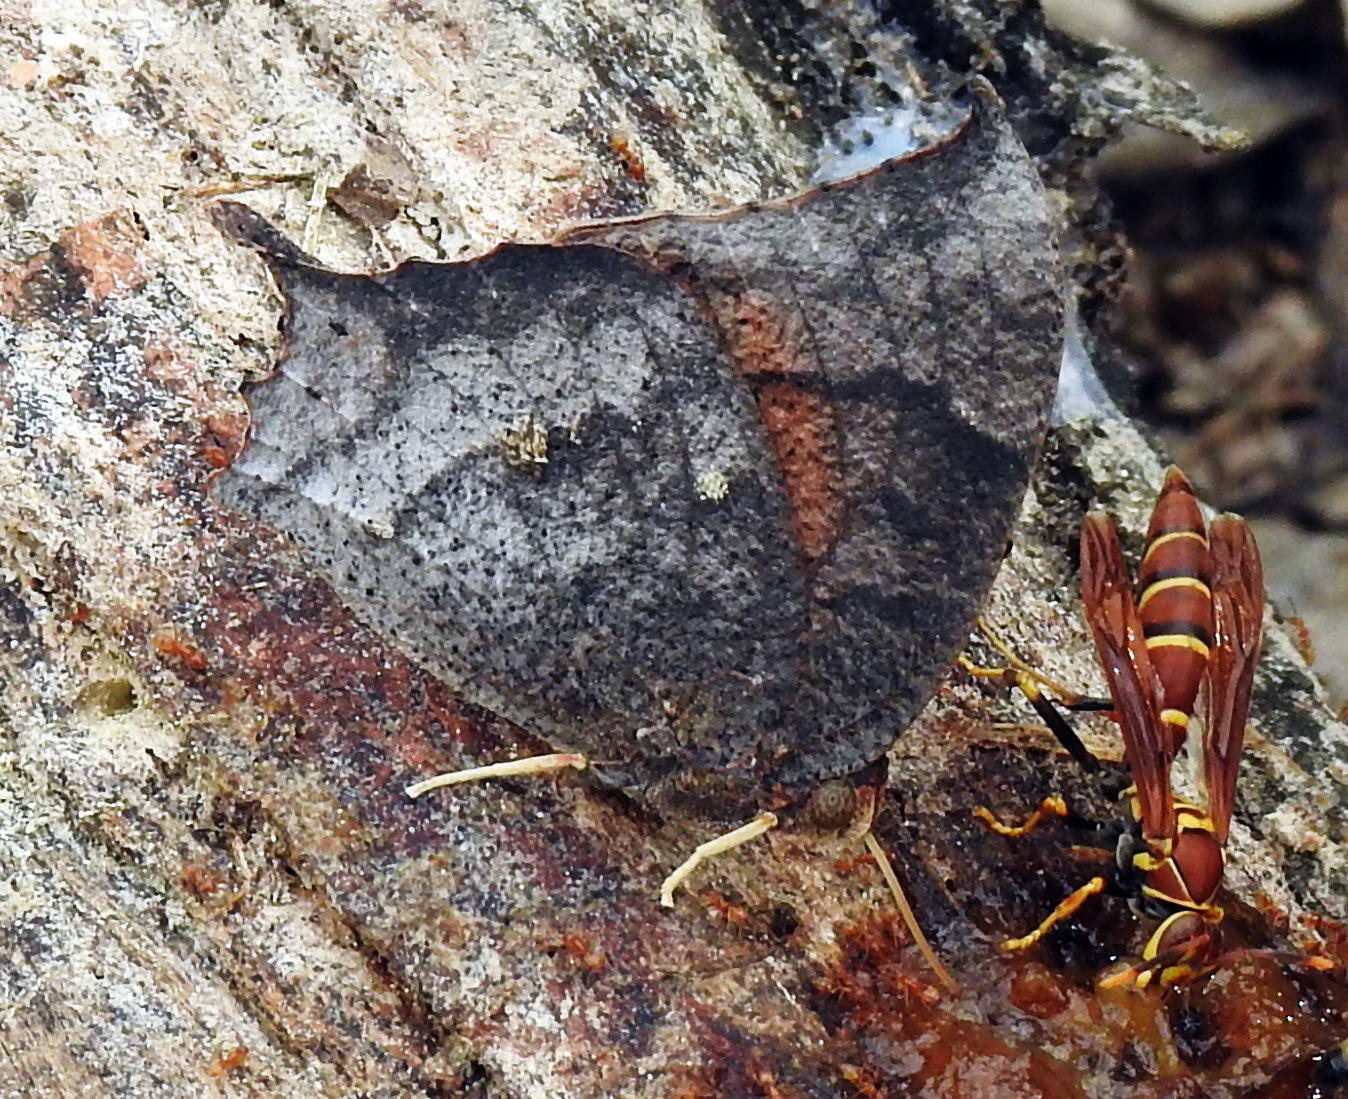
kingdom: Animalia
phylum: Arthropoda
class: Insecta
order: Lepidoptera
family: Nymphalidae
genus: Anaea
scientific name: Anaea aidea
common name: Tropical leafwing
